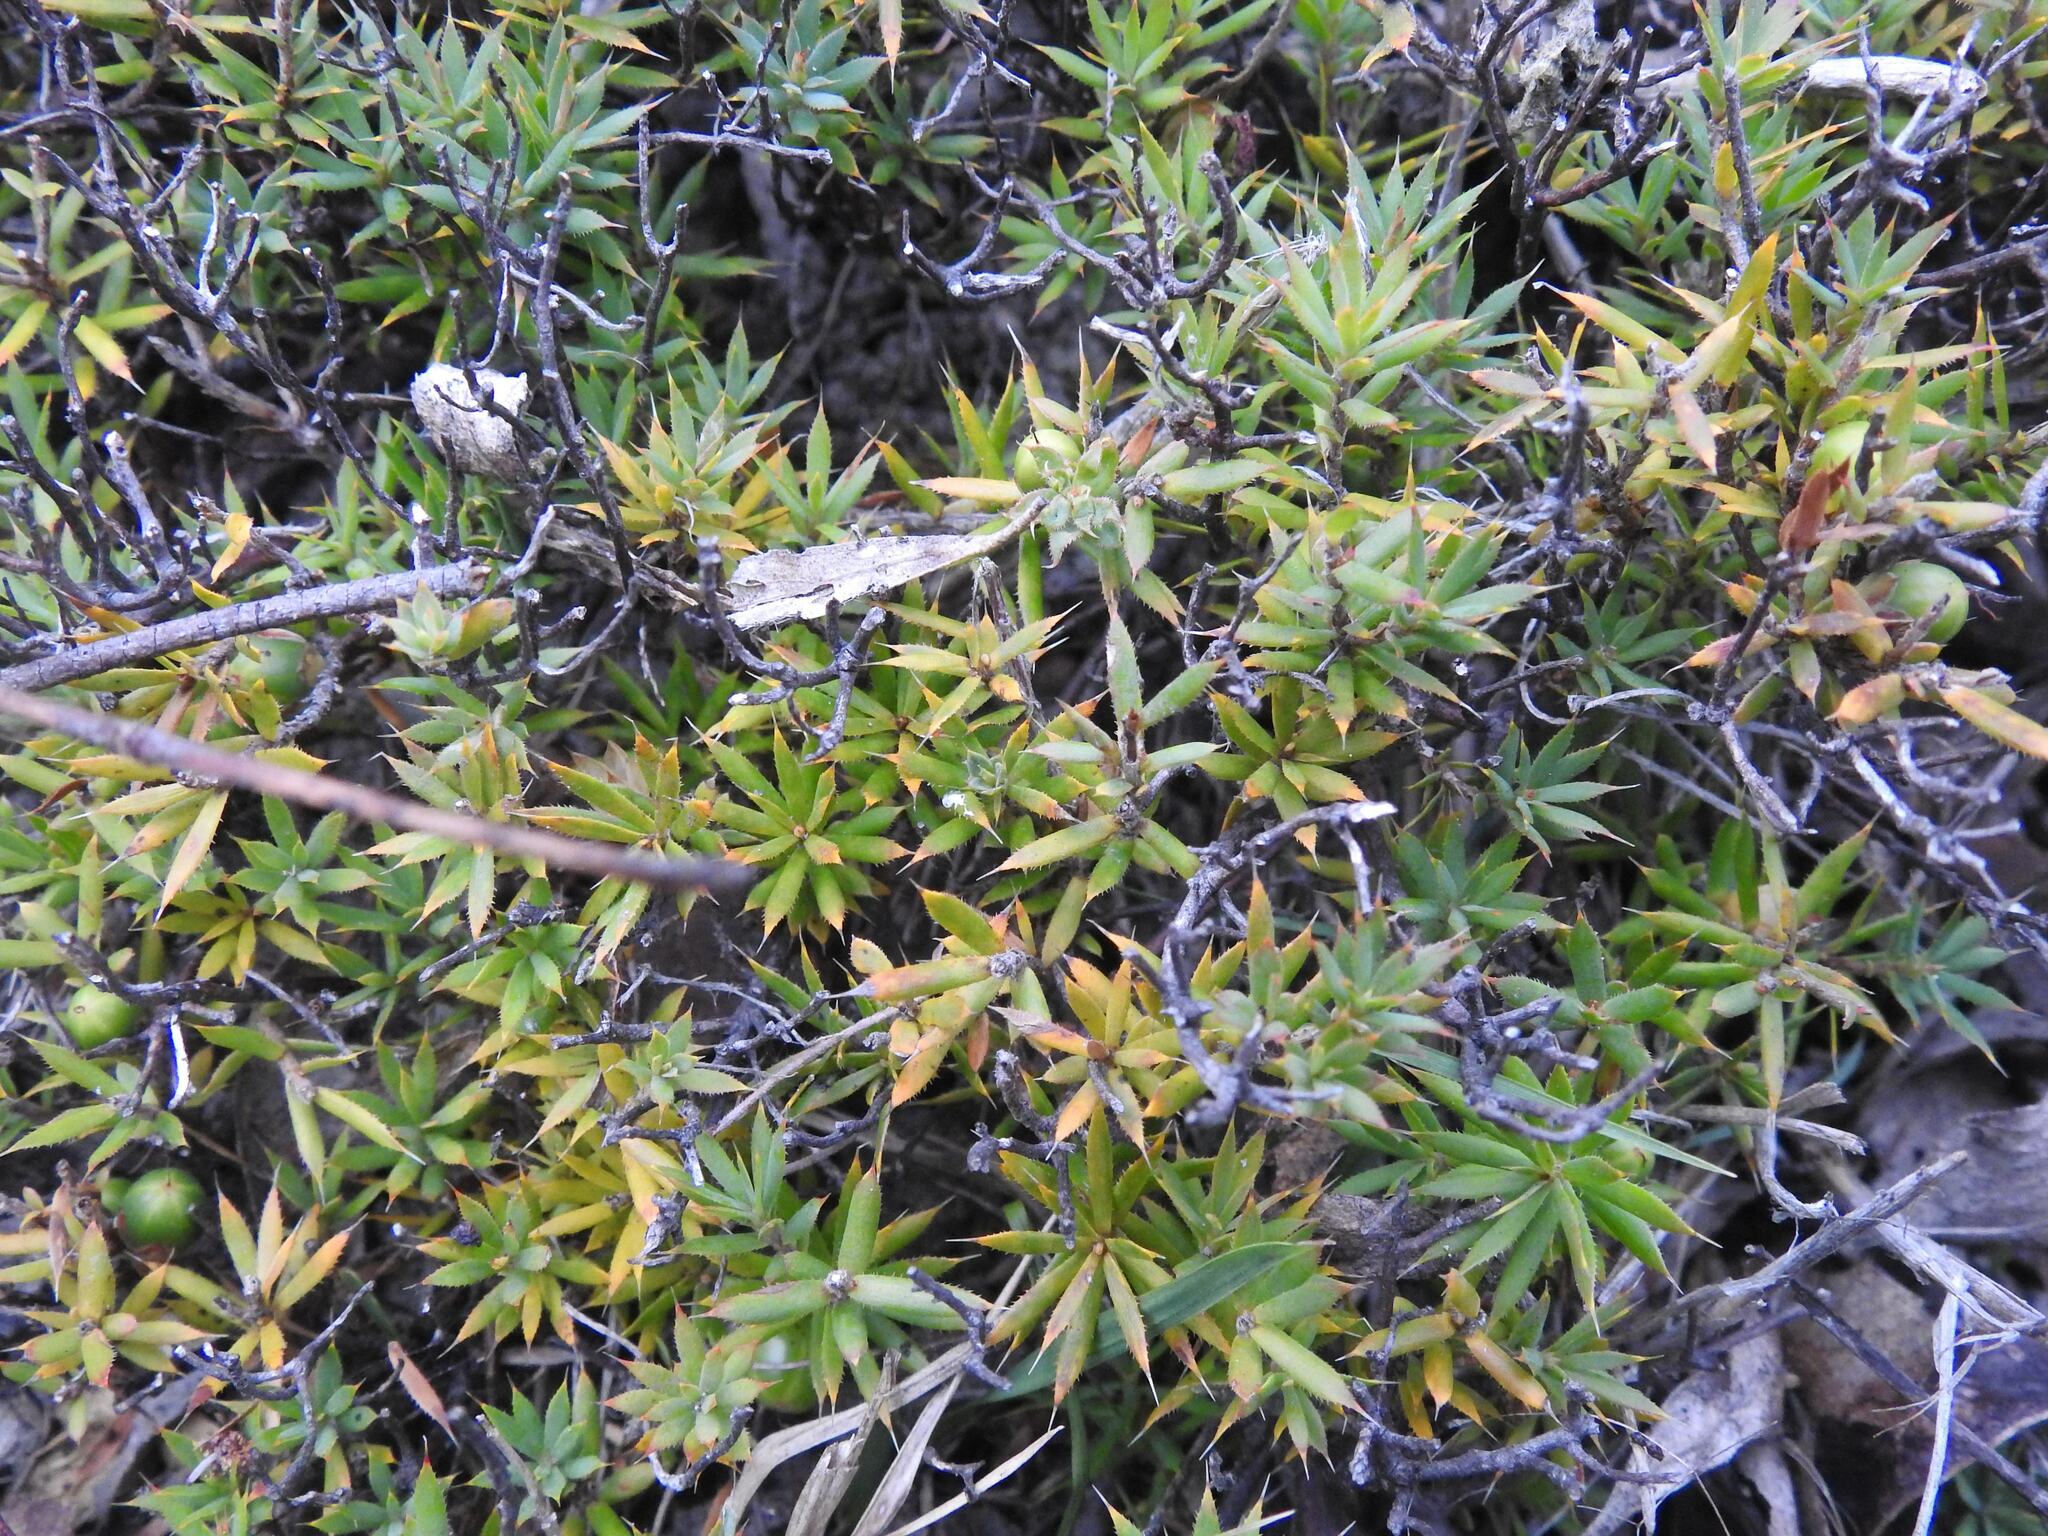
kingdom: Plantae
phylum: Tracheophyta
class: Magnoliopsida
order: Ericales
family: Ericaceae
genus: Styphelia
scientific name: Styphelia humifusa
